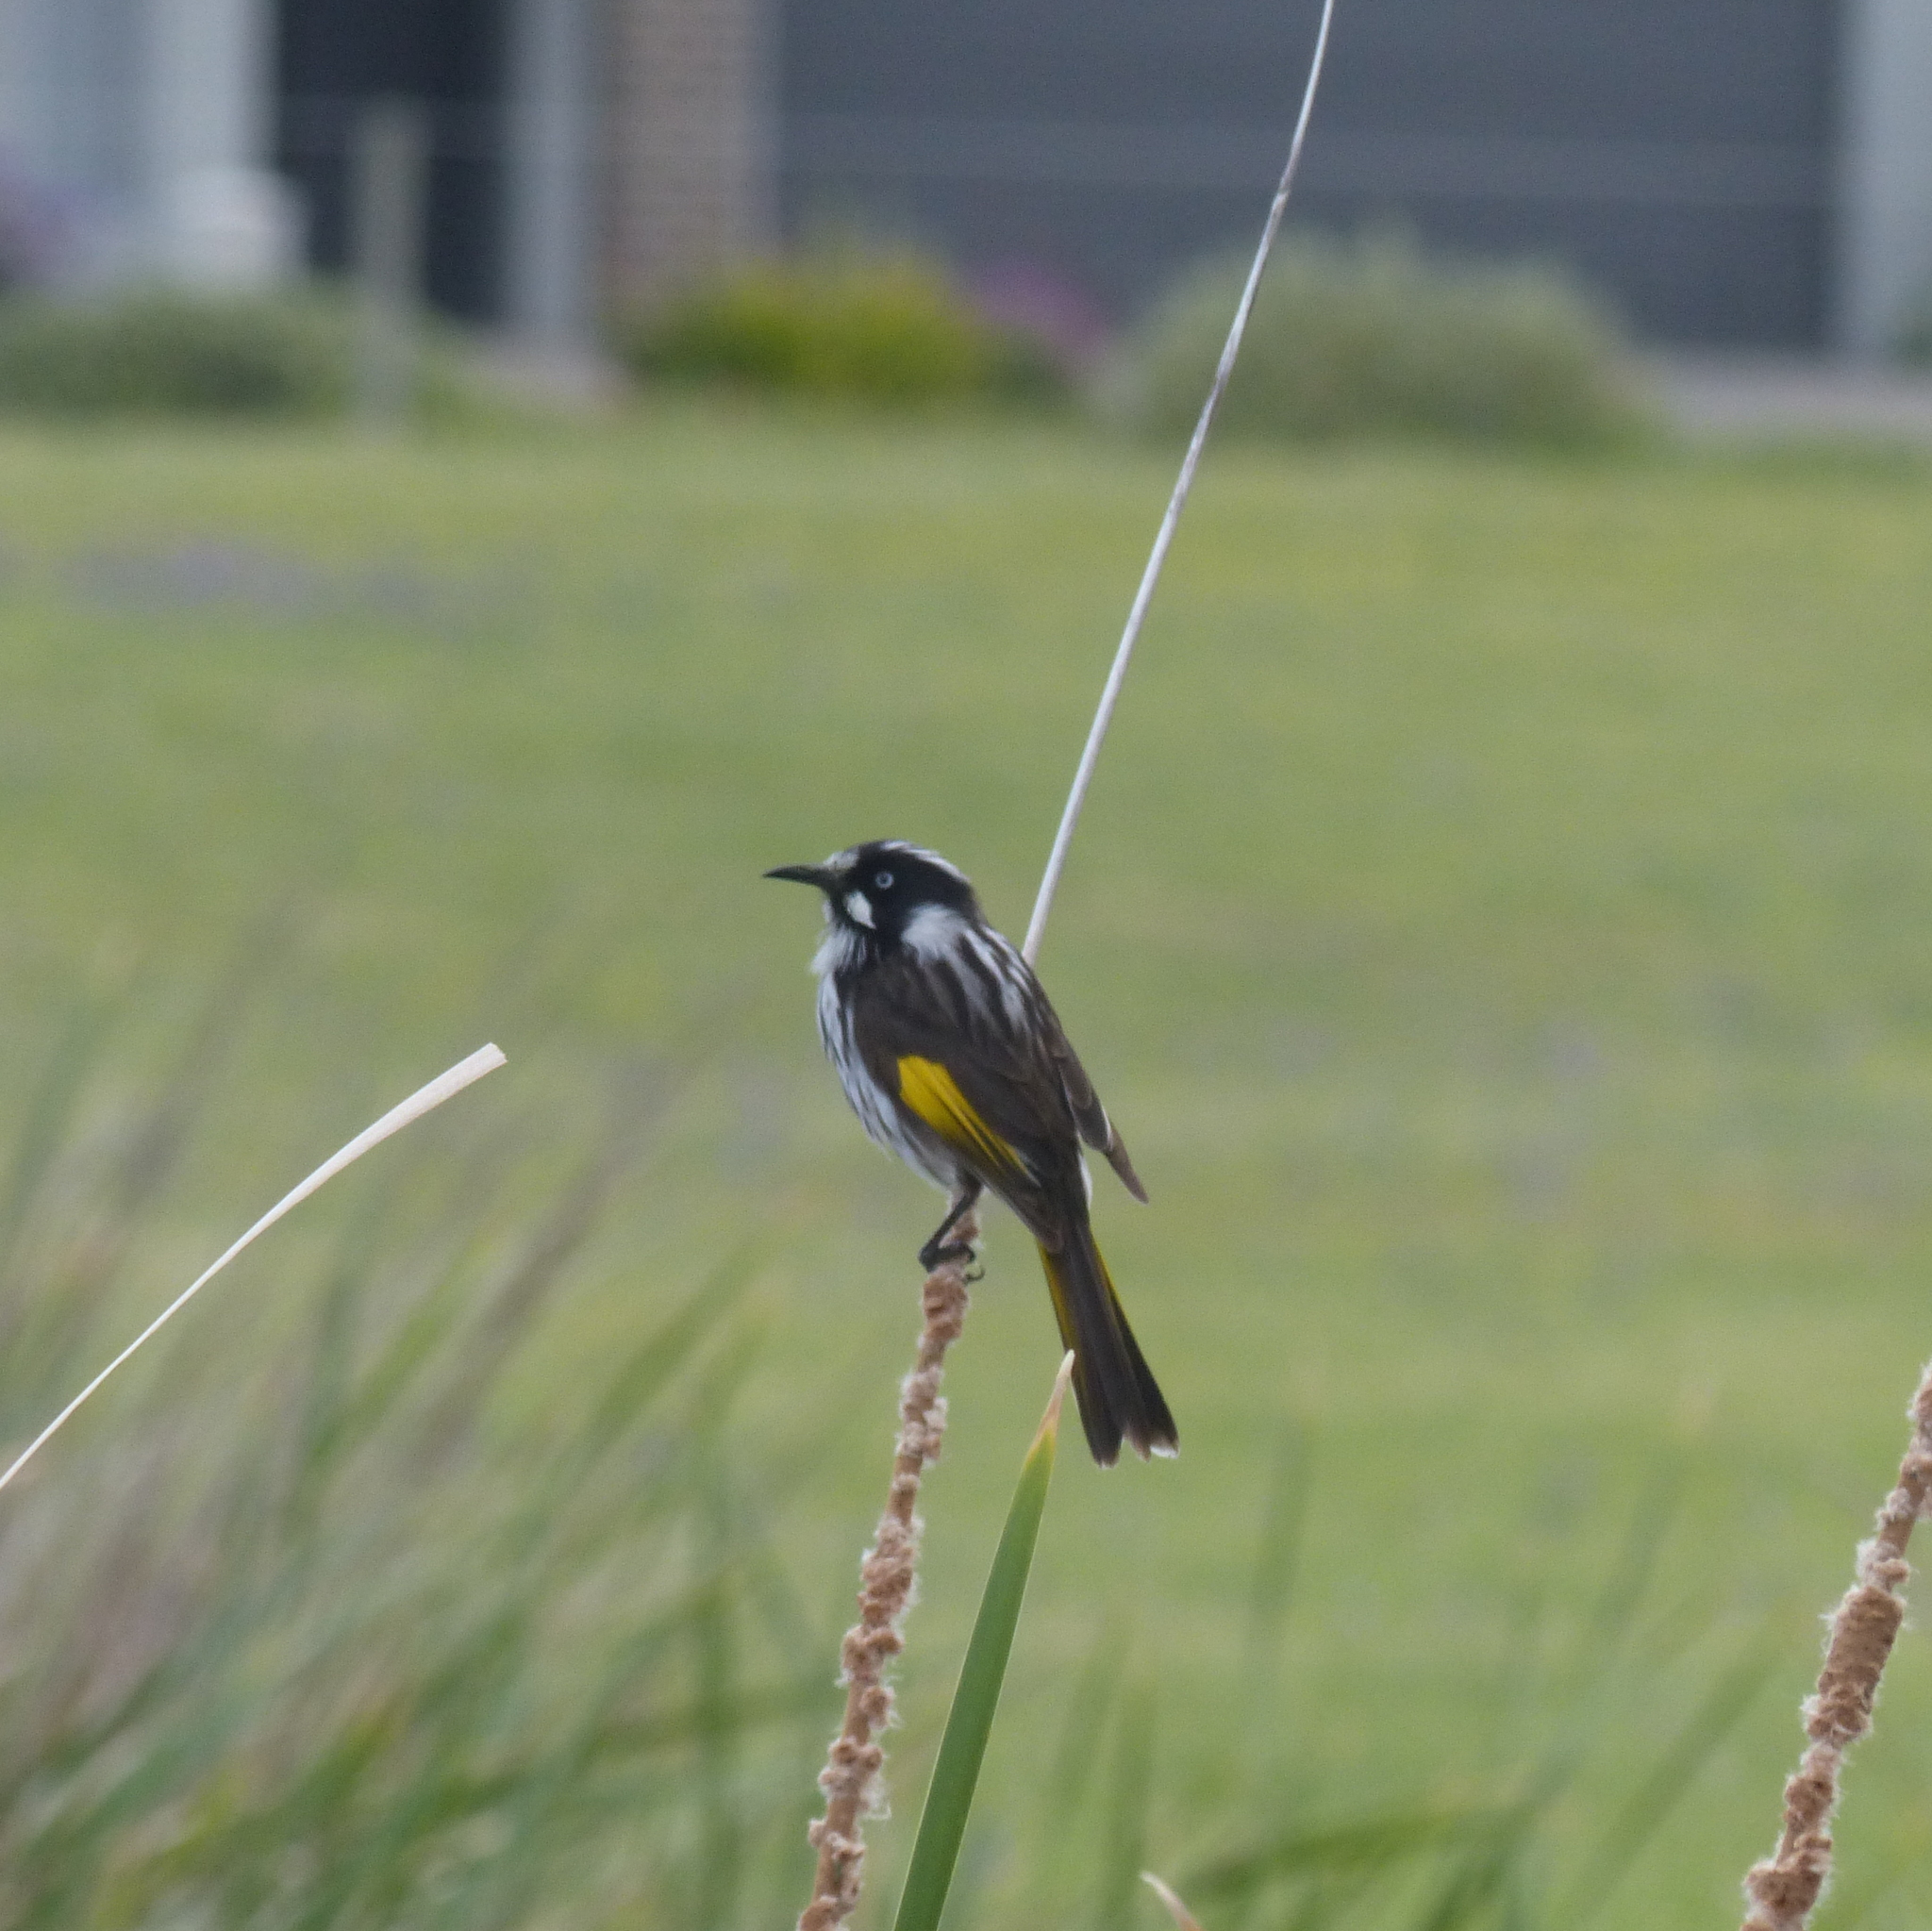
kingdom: Animalia
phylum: Chordata
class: Aves
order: Passeriformes
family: Meliphagidae
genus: Phylidonyris
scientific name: Phylidonyris novaehollandiae
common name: New holland honeyeater
